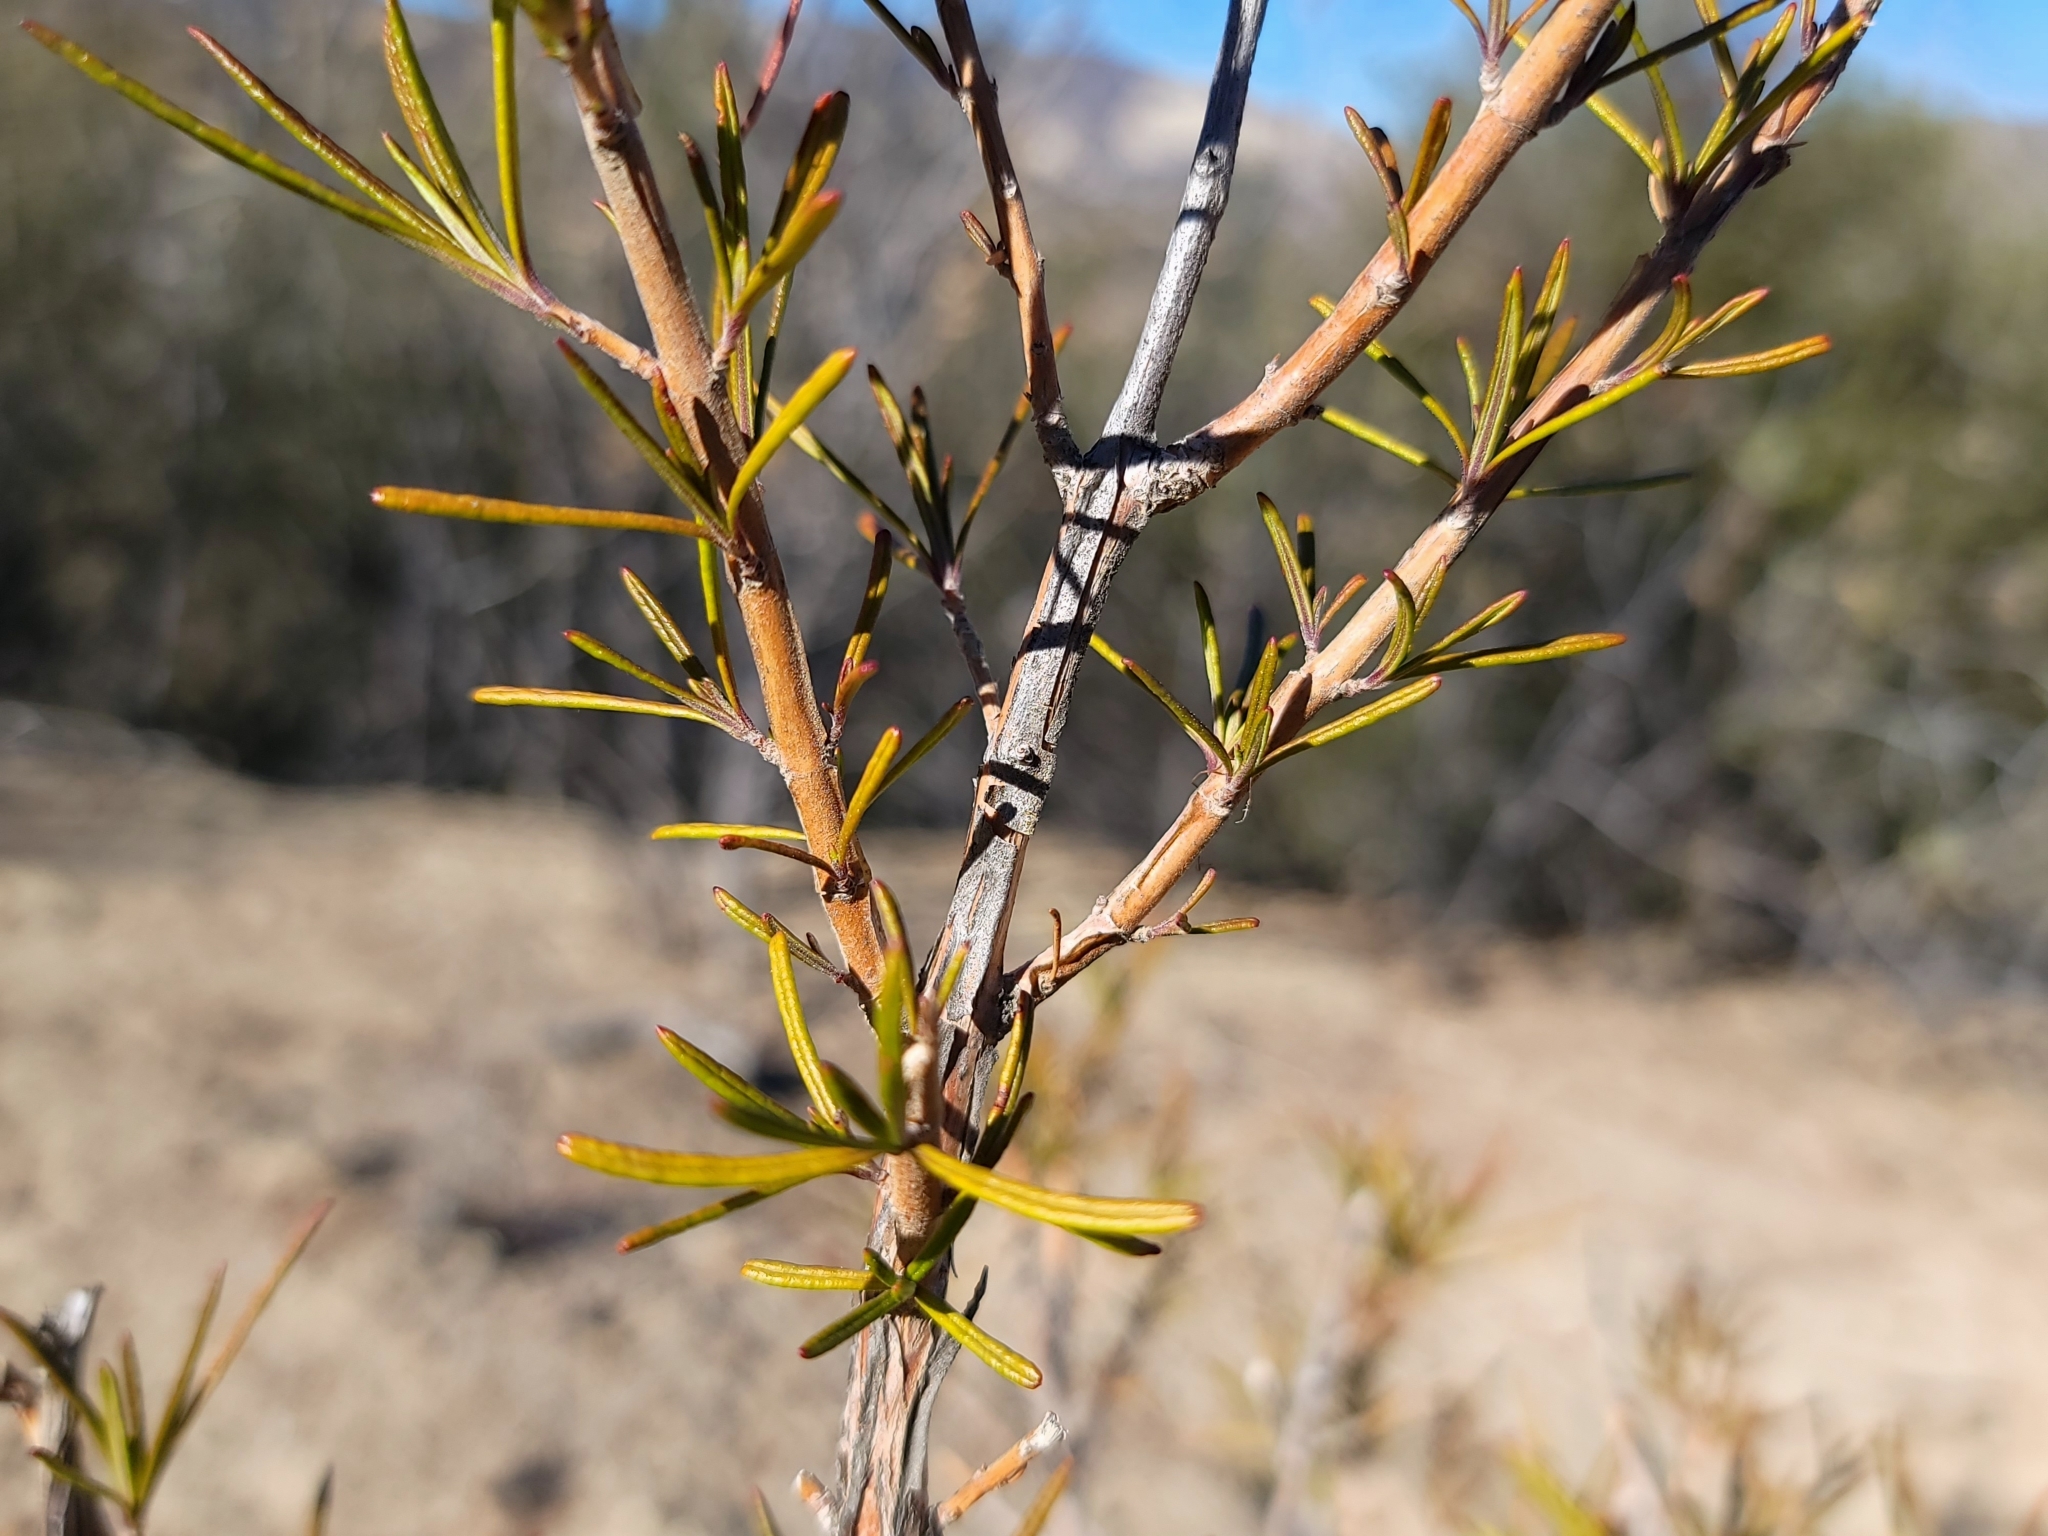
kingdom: Plantae
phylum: Tracheophyta
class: Magnoliopsida
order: Lamiales
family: Lamiaceae
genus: Trichostema
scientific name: Trichostema lanatum
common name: Woolly bluecurls
